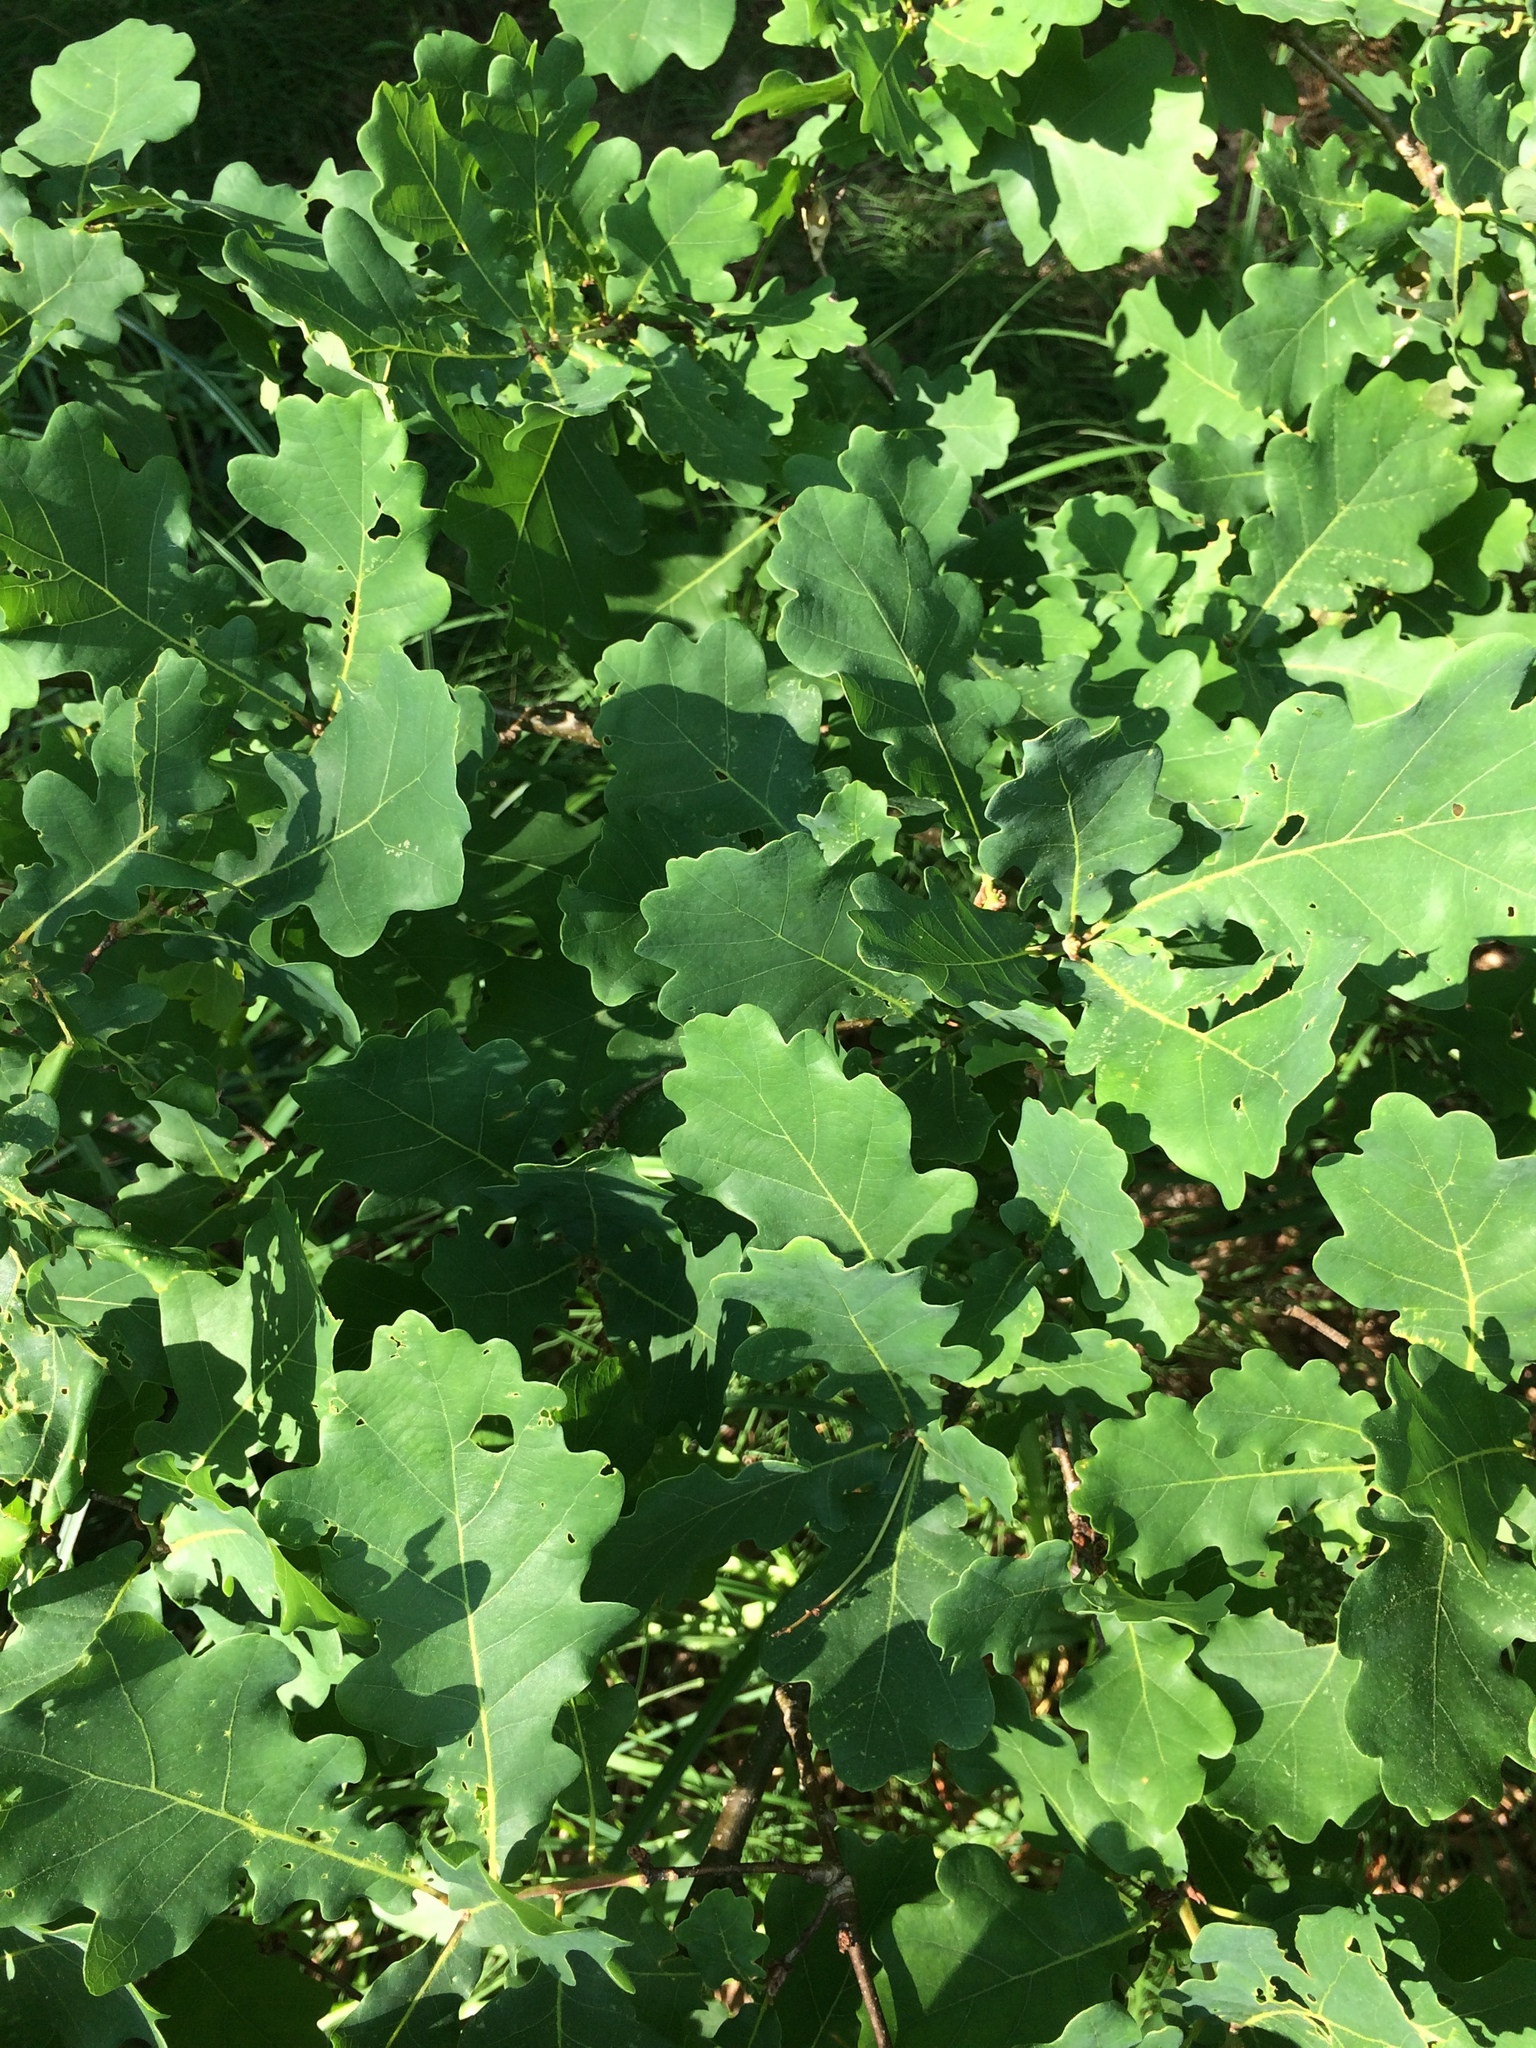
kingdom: Plantae
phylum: Tracheophyta
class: Magnoliopsida
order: Fagales
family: Fagaceae
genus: Quercus
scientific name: Quercus robur
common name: Pedunculate oak
